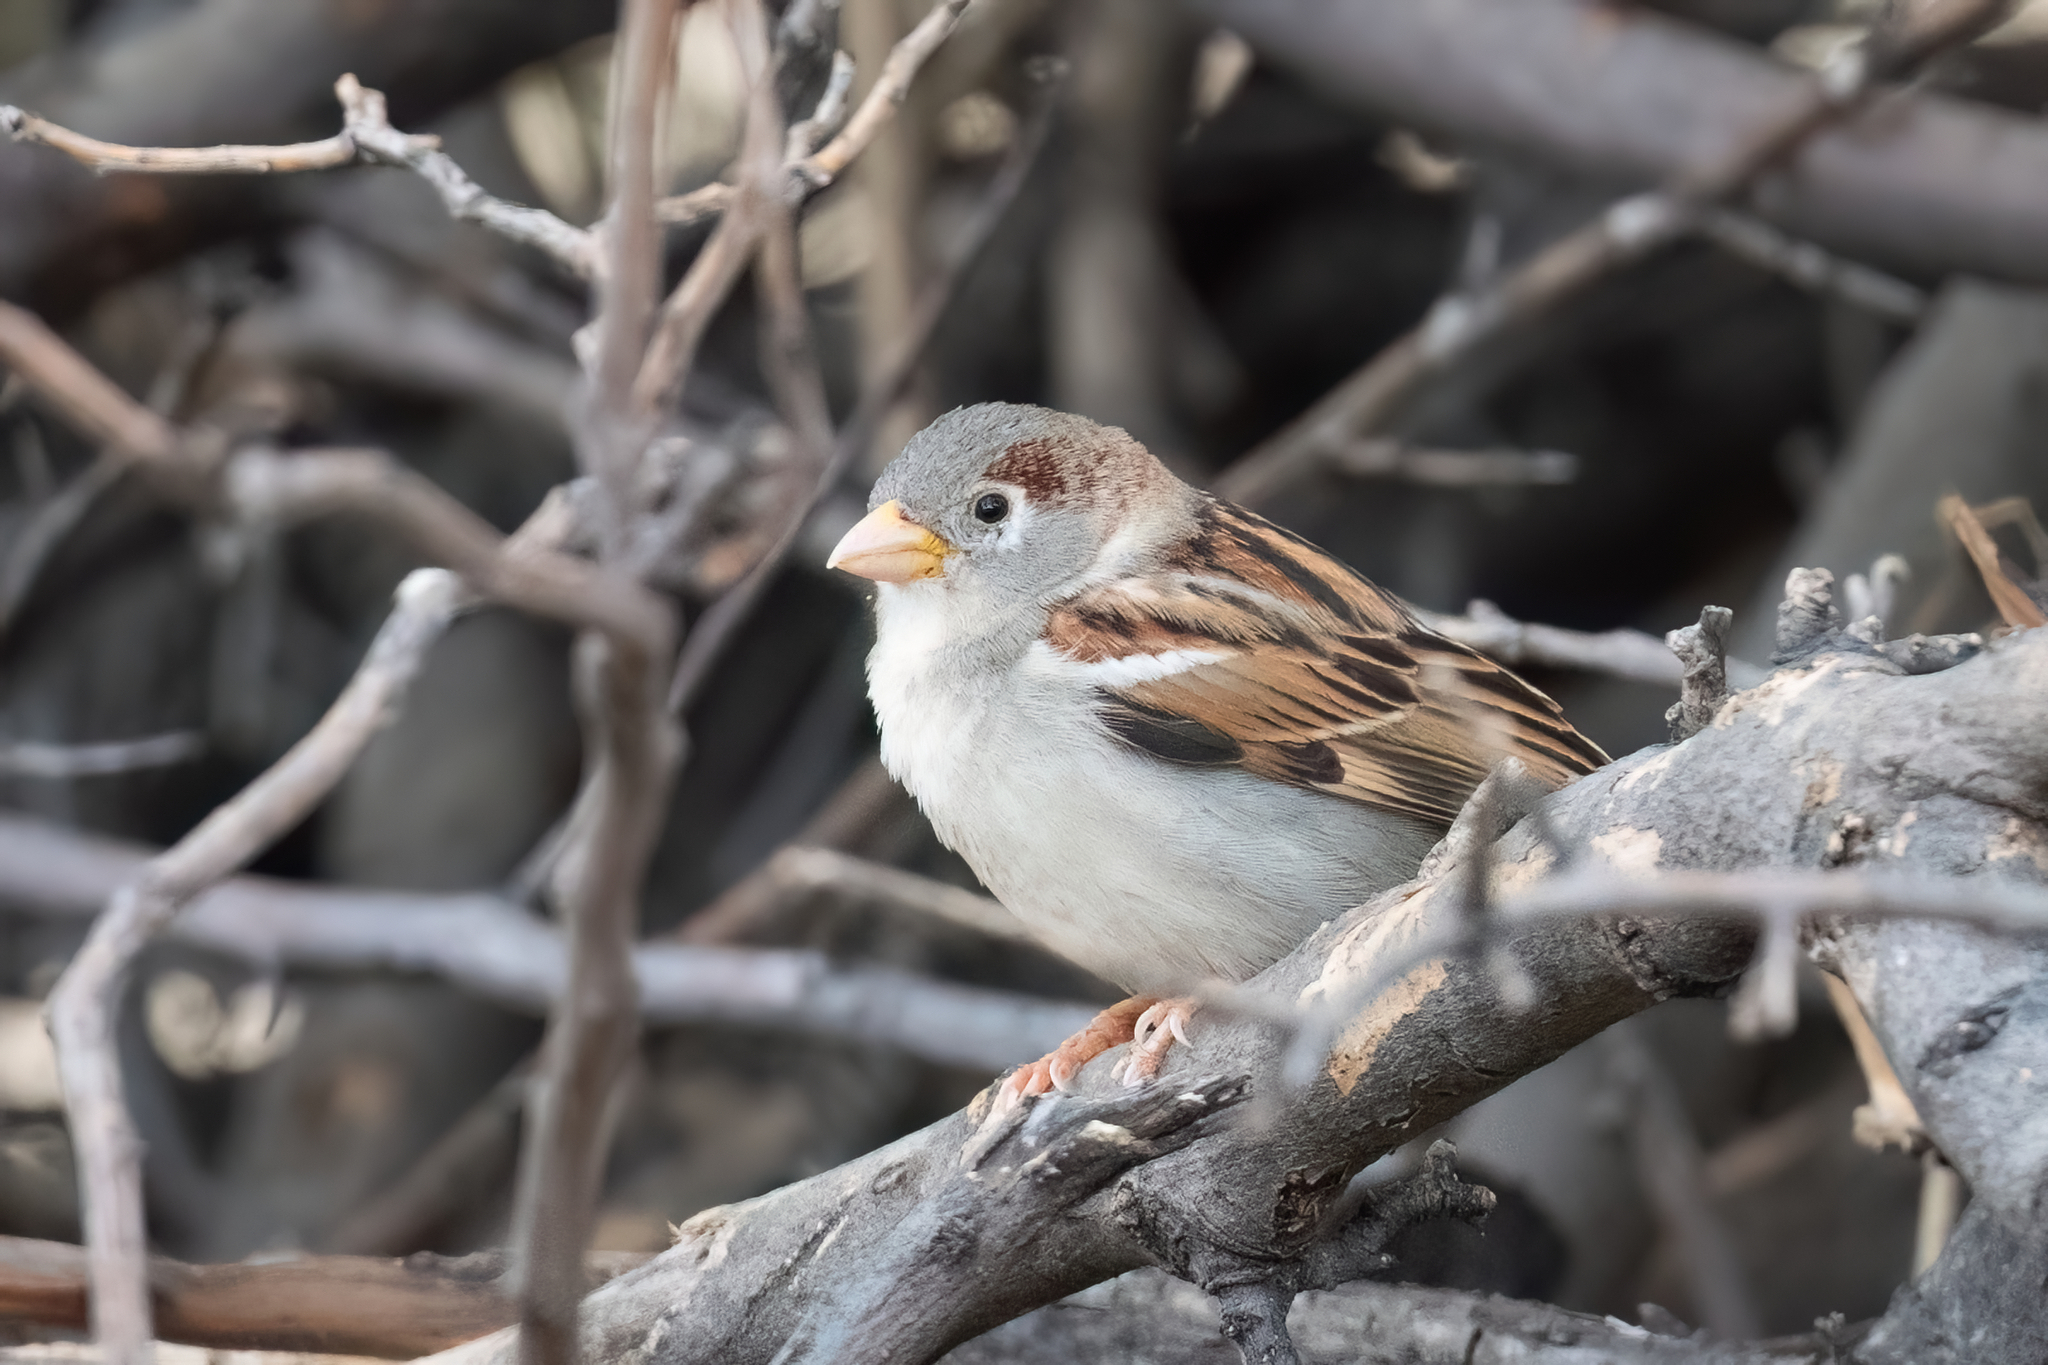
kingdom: Animalia
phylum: Chordata
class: Aves
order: Passeriformes
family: Passeridae
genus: Passer
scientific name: Passer domesticus
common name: House sparrow
